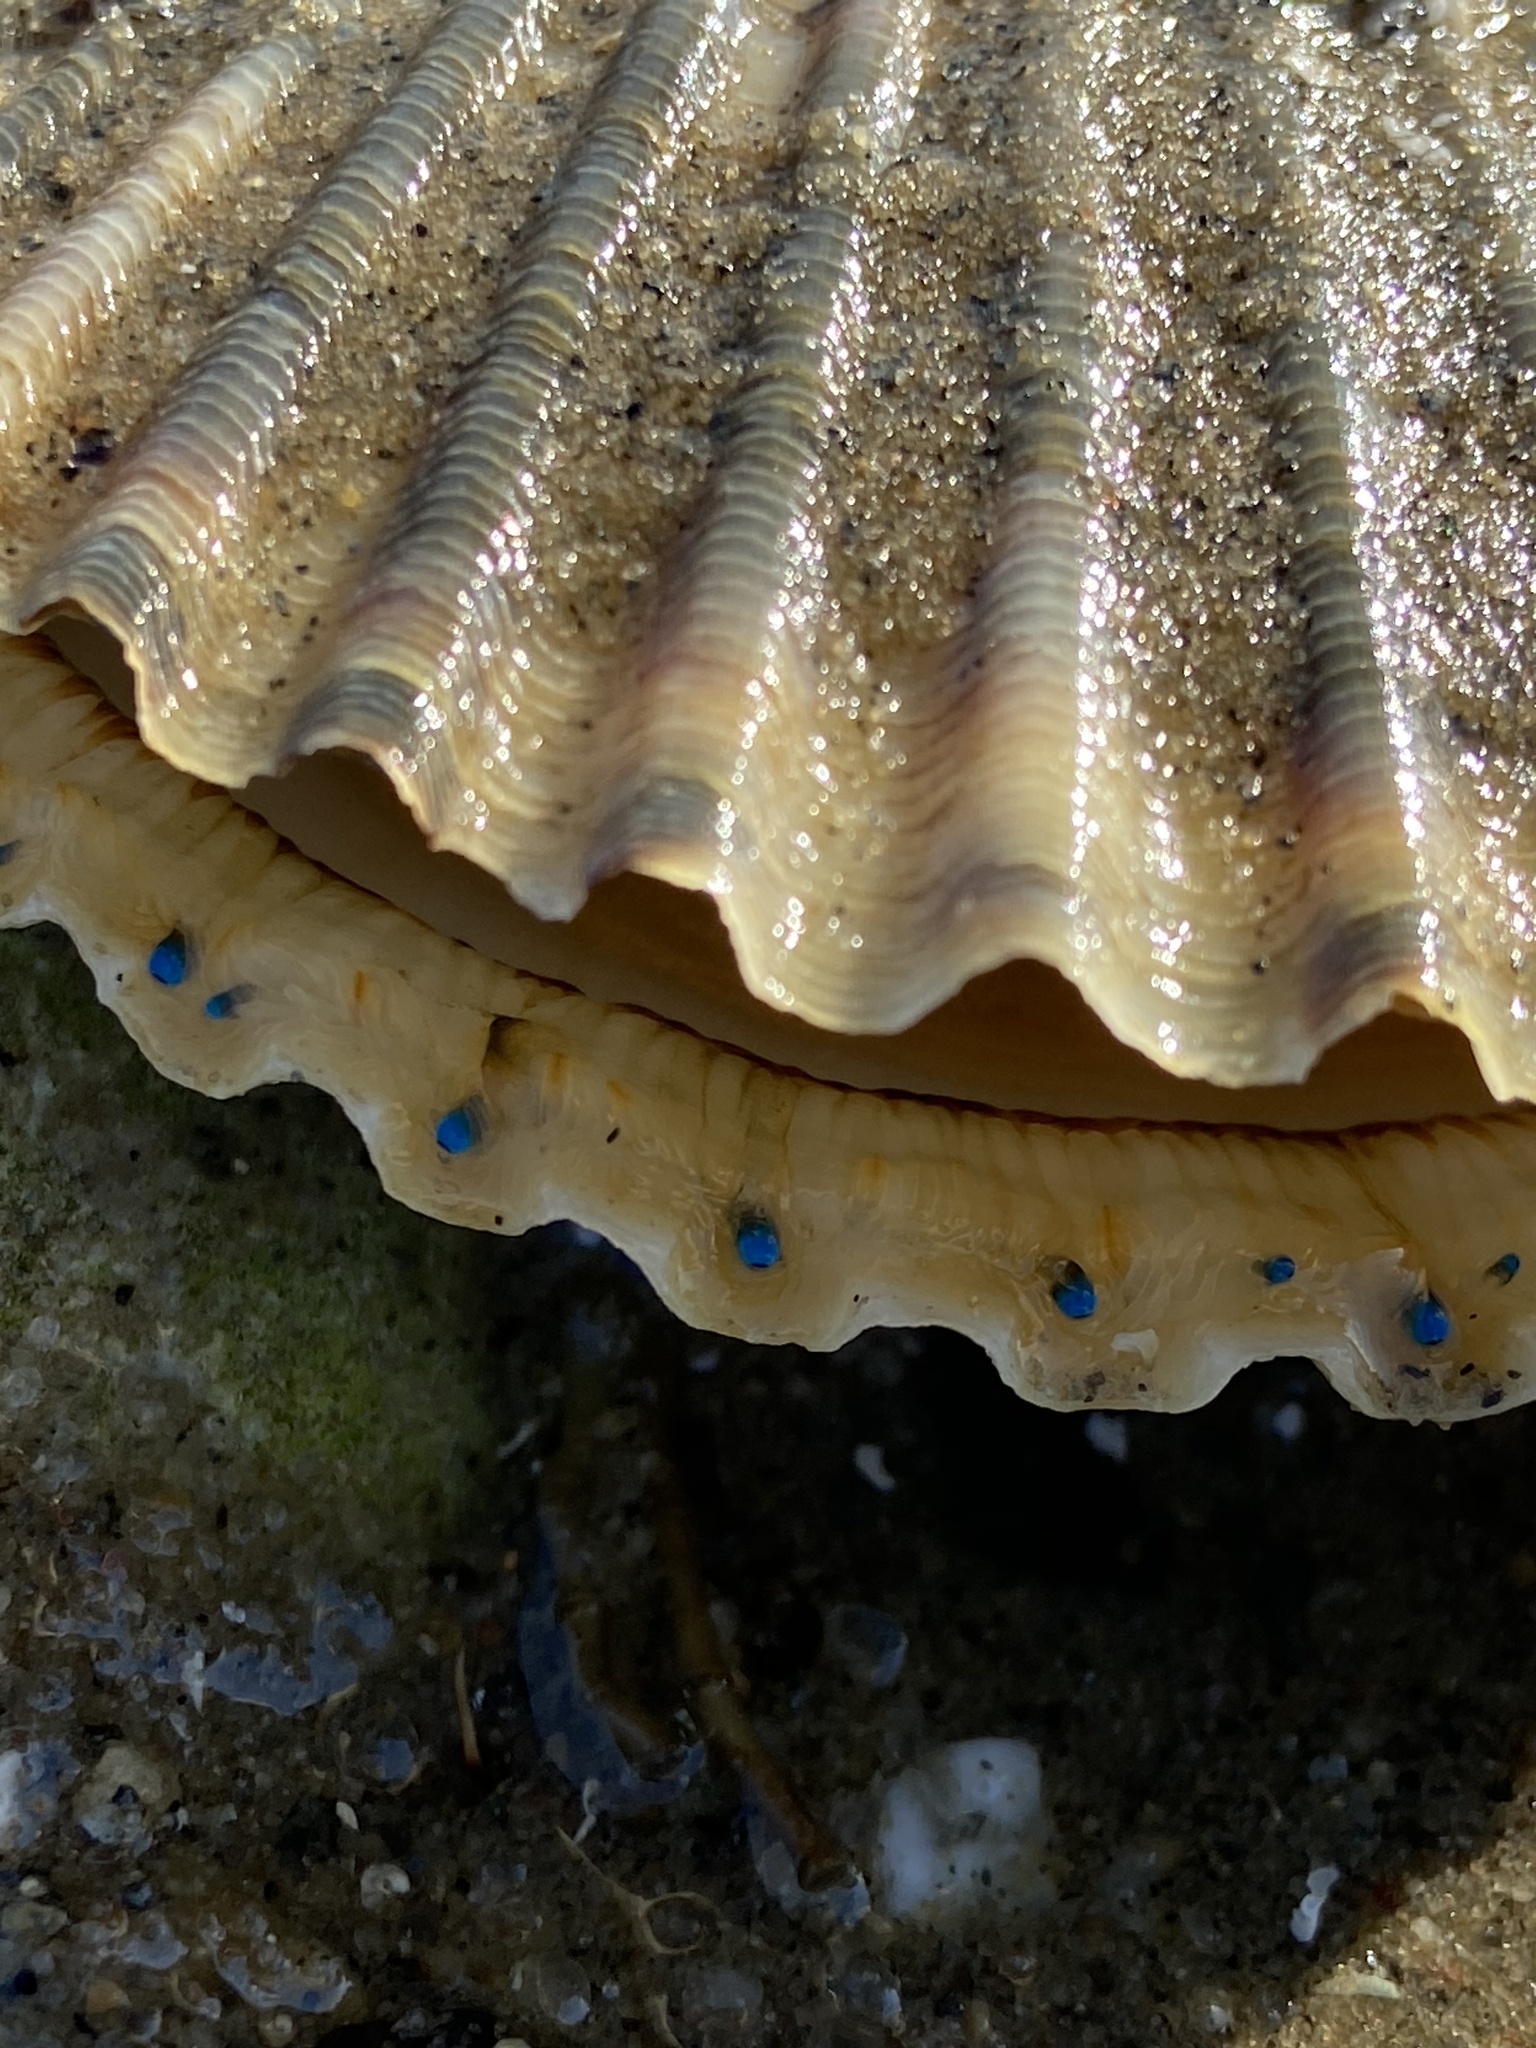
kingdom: Animalia
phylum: Mollusca
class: Bivalvia
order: Pectinida
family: Pectinidae
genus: Argopecten
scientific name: Argopecten irradians
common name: Atlantic bay scallop
